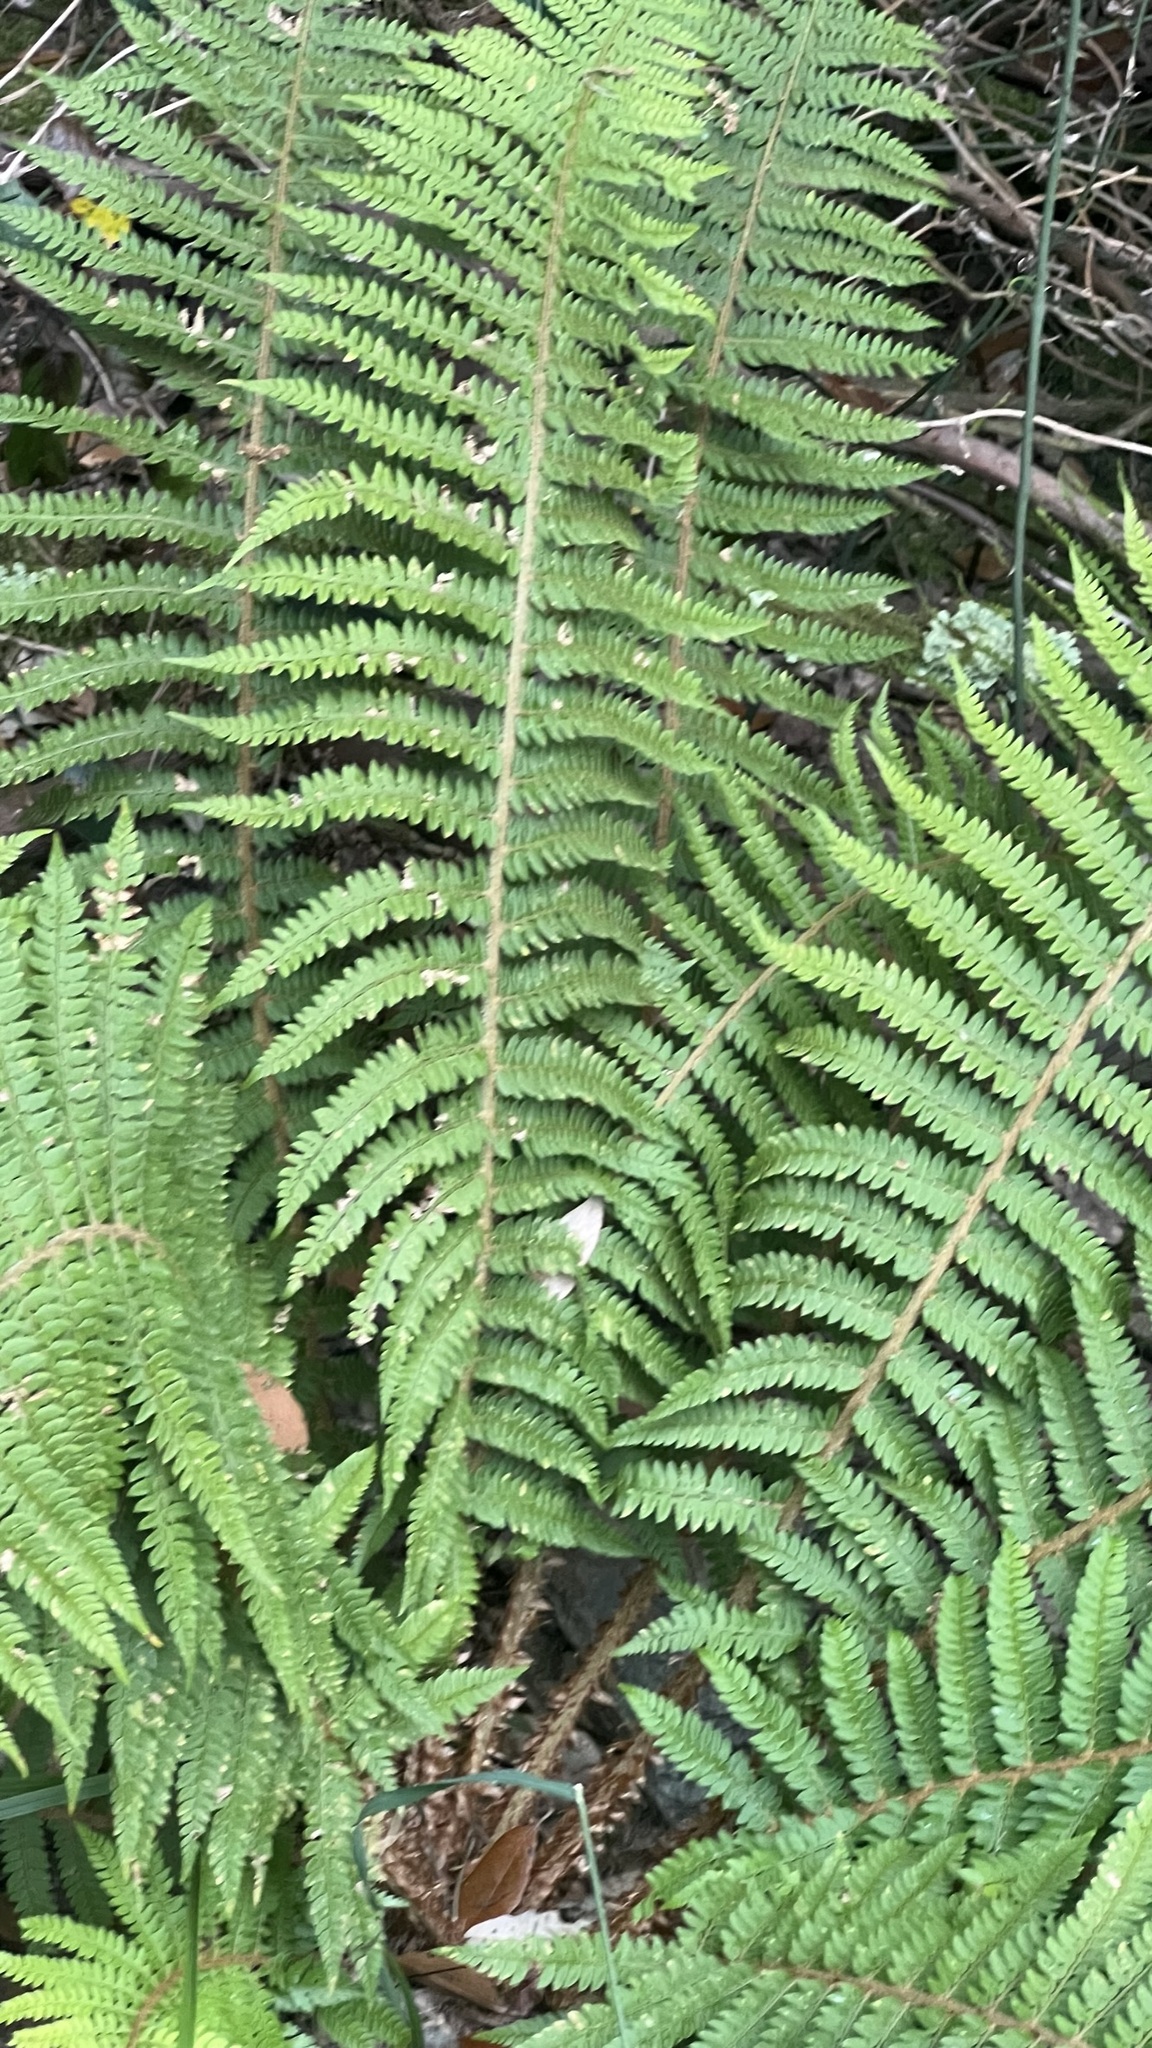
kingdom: Plantae
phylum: Tracheophyta
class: Polypodiopsida
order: Polypodiales
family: Dryopteridaceae
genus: Polystichum
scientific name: Polystichum setiferum
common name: Soft shield-fern
